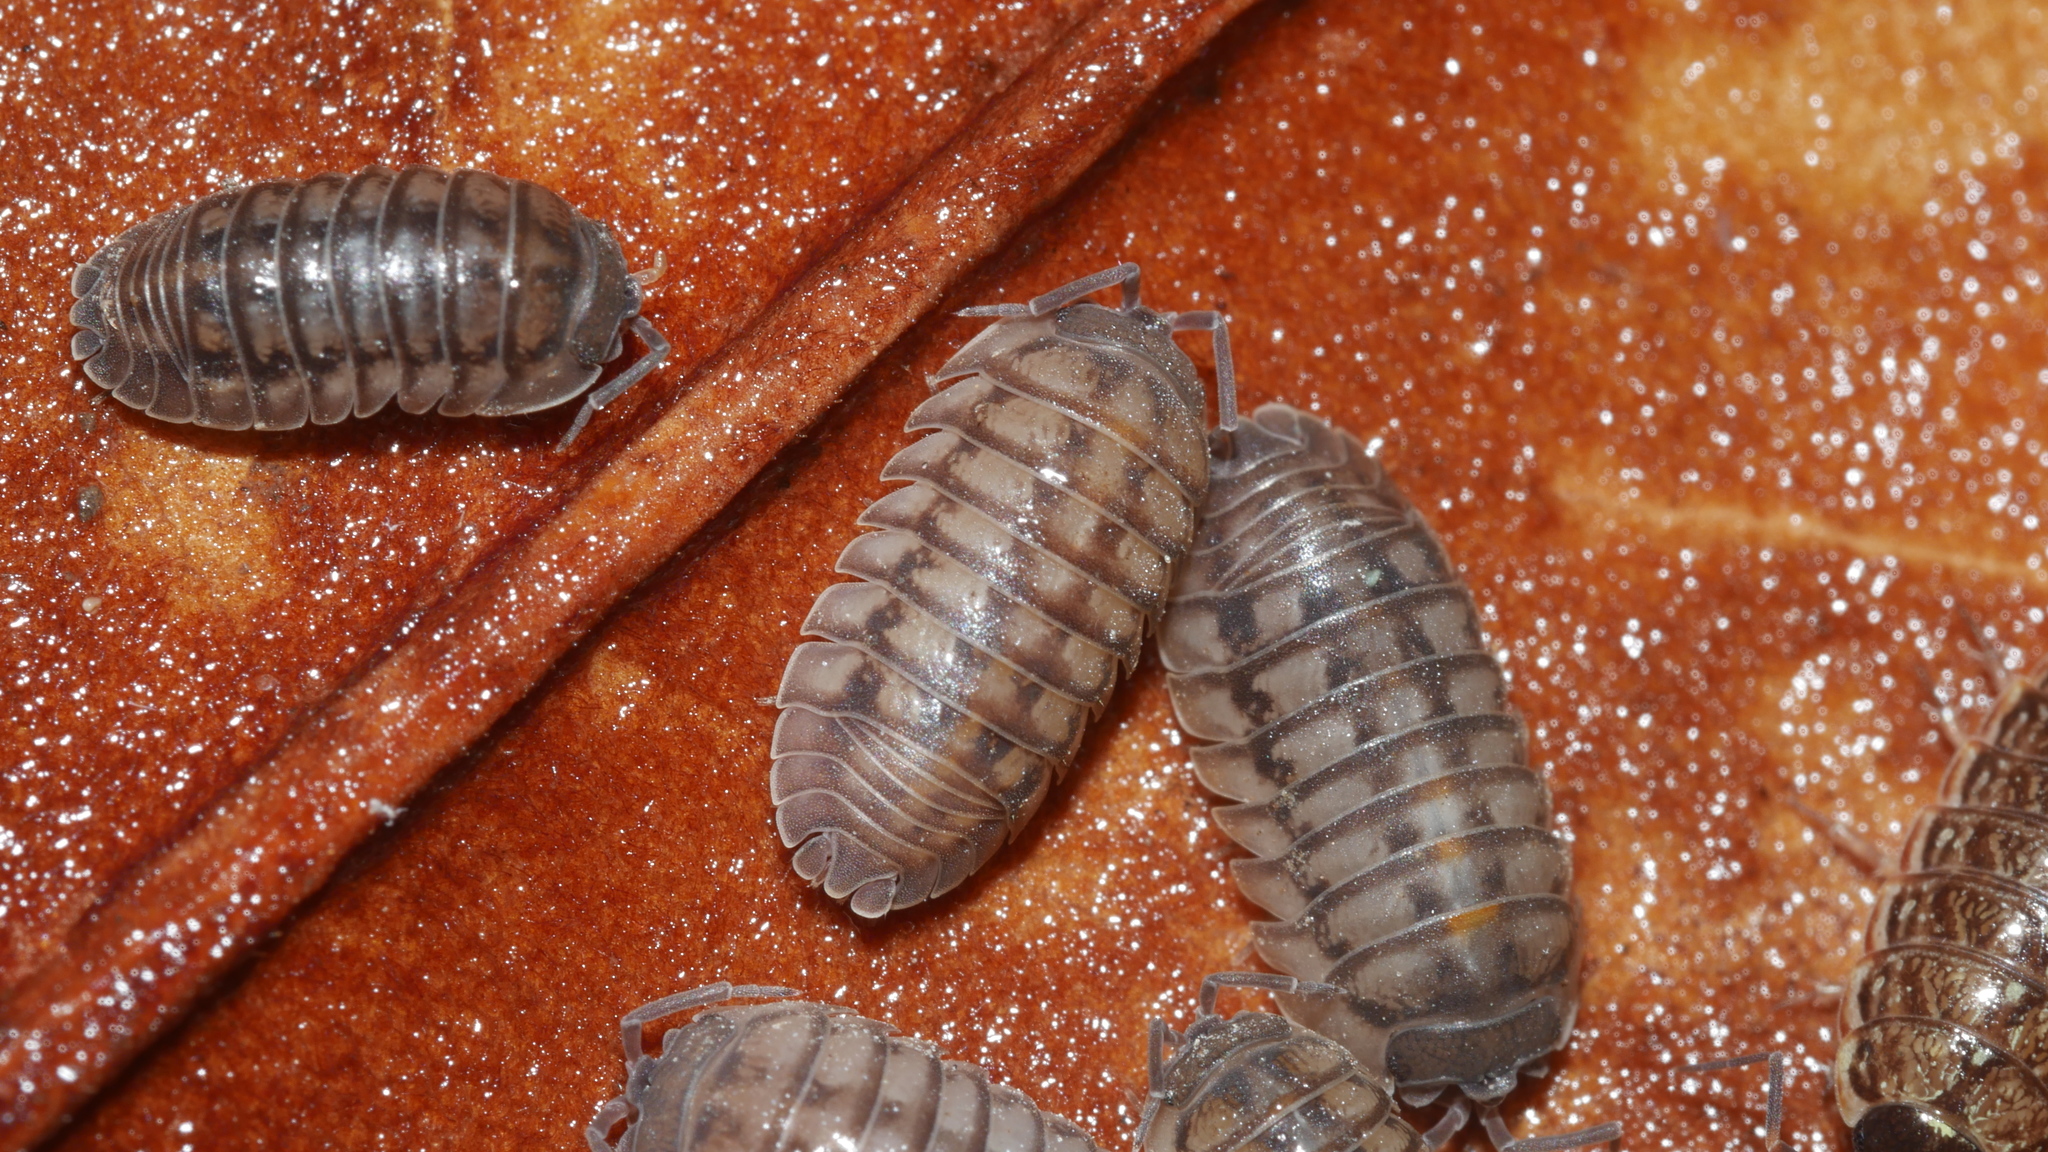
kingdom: Animalia
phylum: Arthropoda
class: Malacostraca
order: Isopoda
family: Armadillidiidae
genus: Armadillidium
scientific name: Armadillidium nasatum
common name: Isopod
